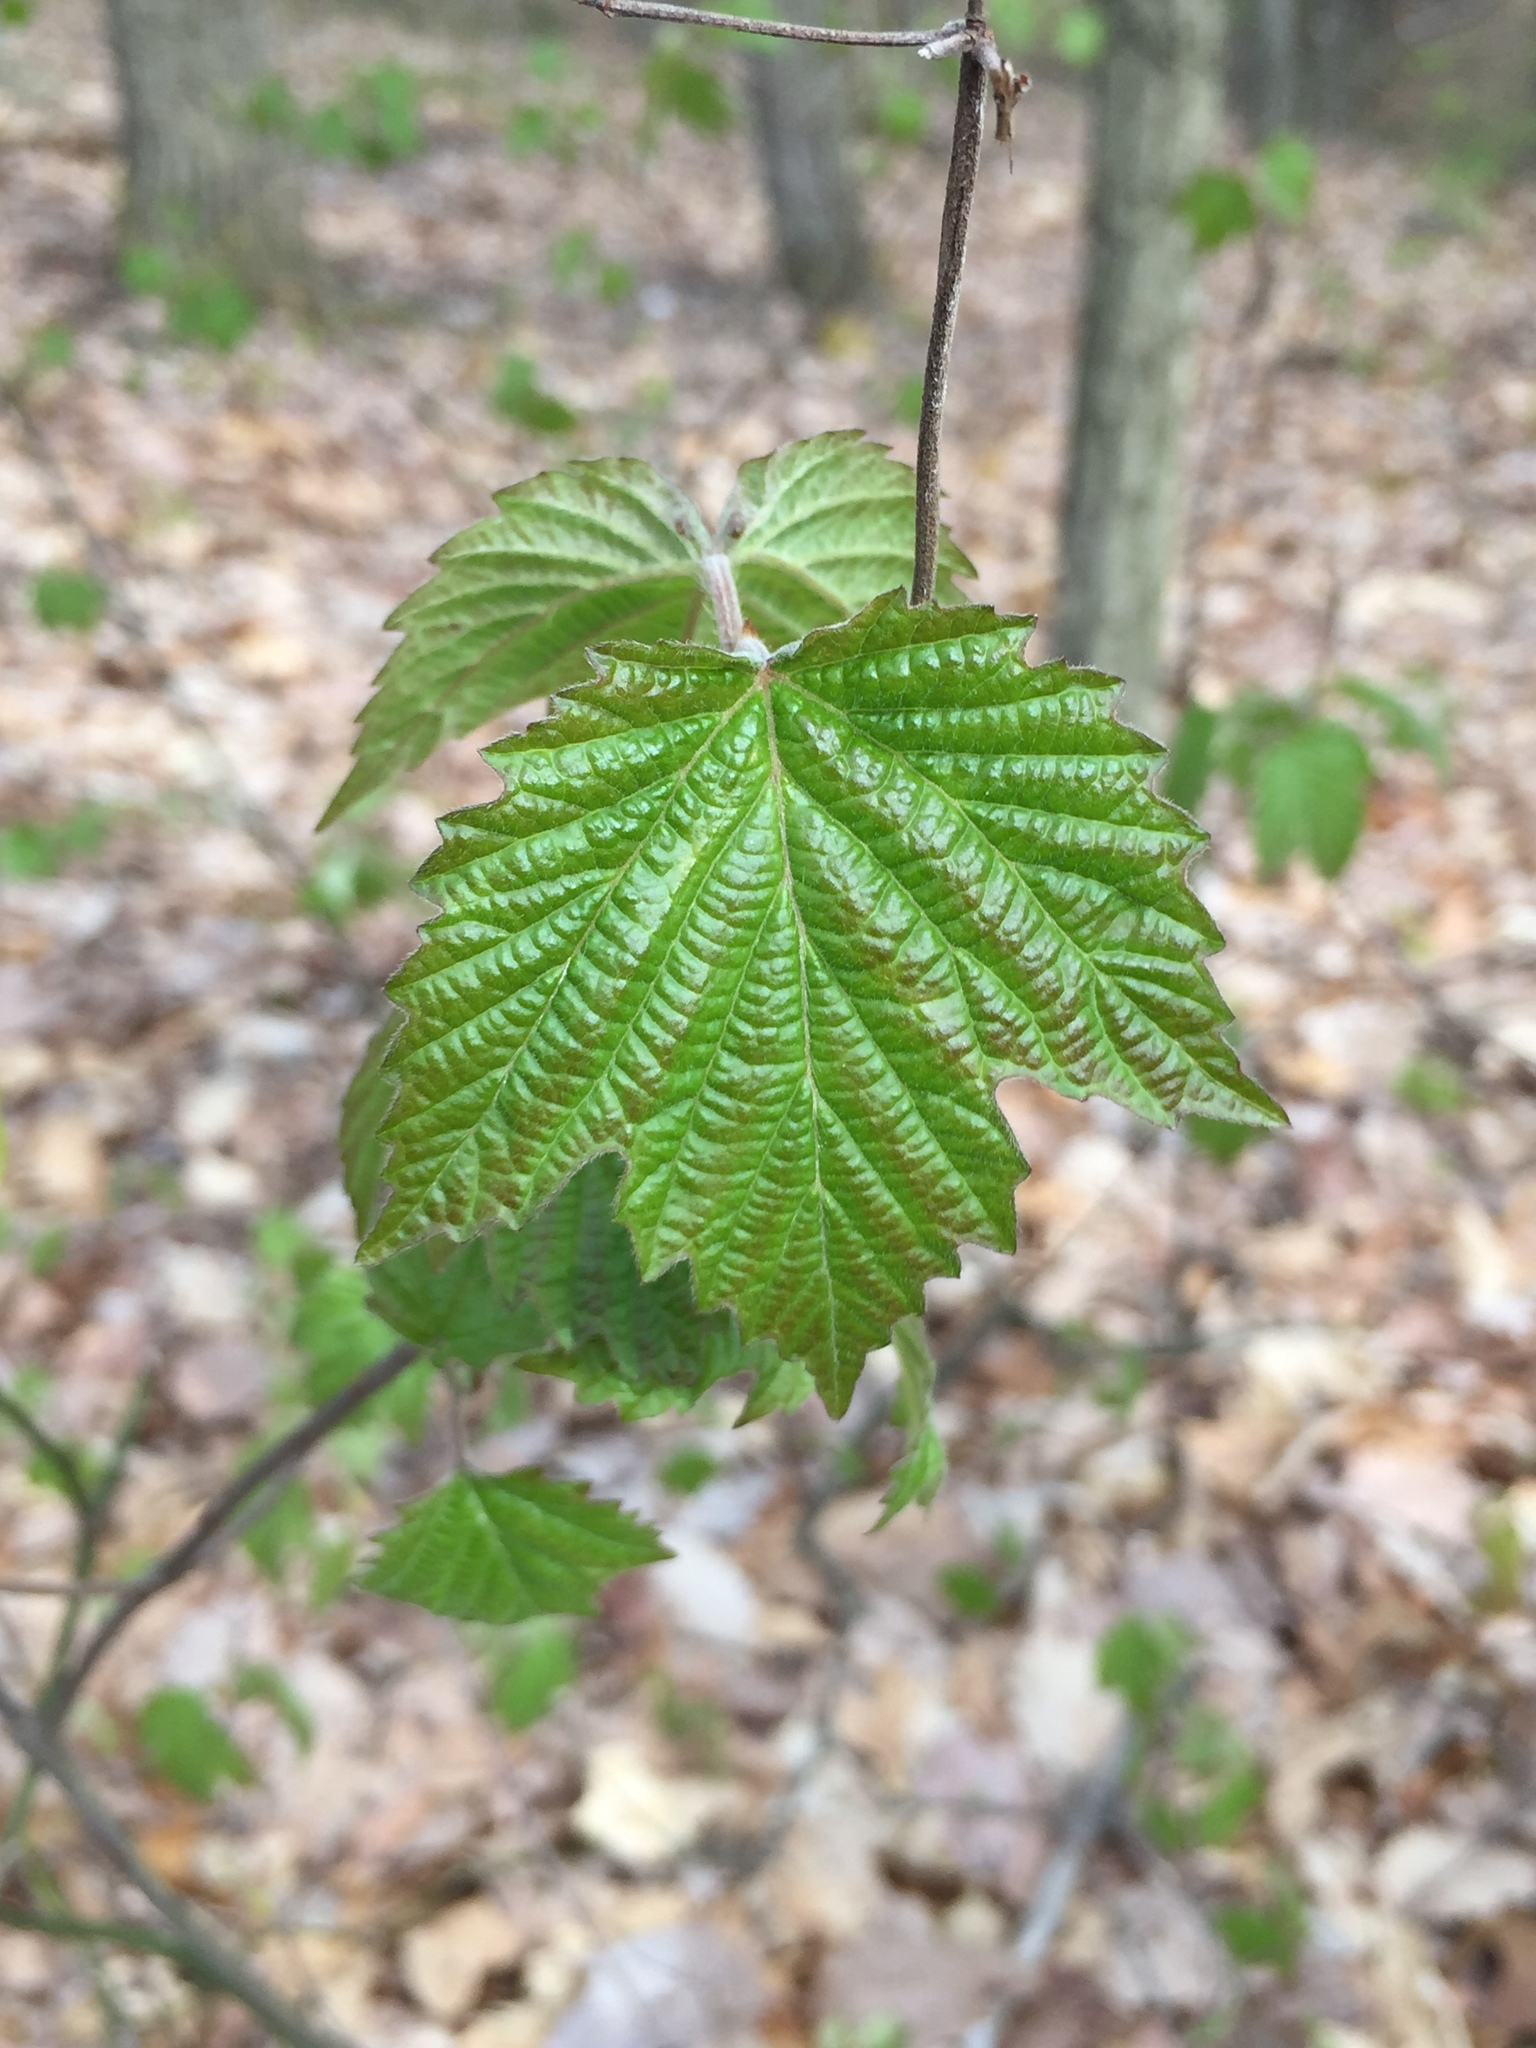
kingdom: Plantae
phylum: Tracheophyta
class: Magnoliopsida
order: Dipsacales
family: Viburnaceae
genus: Viburnum
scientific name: Viburnum acerifolium
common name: Dockmackie
